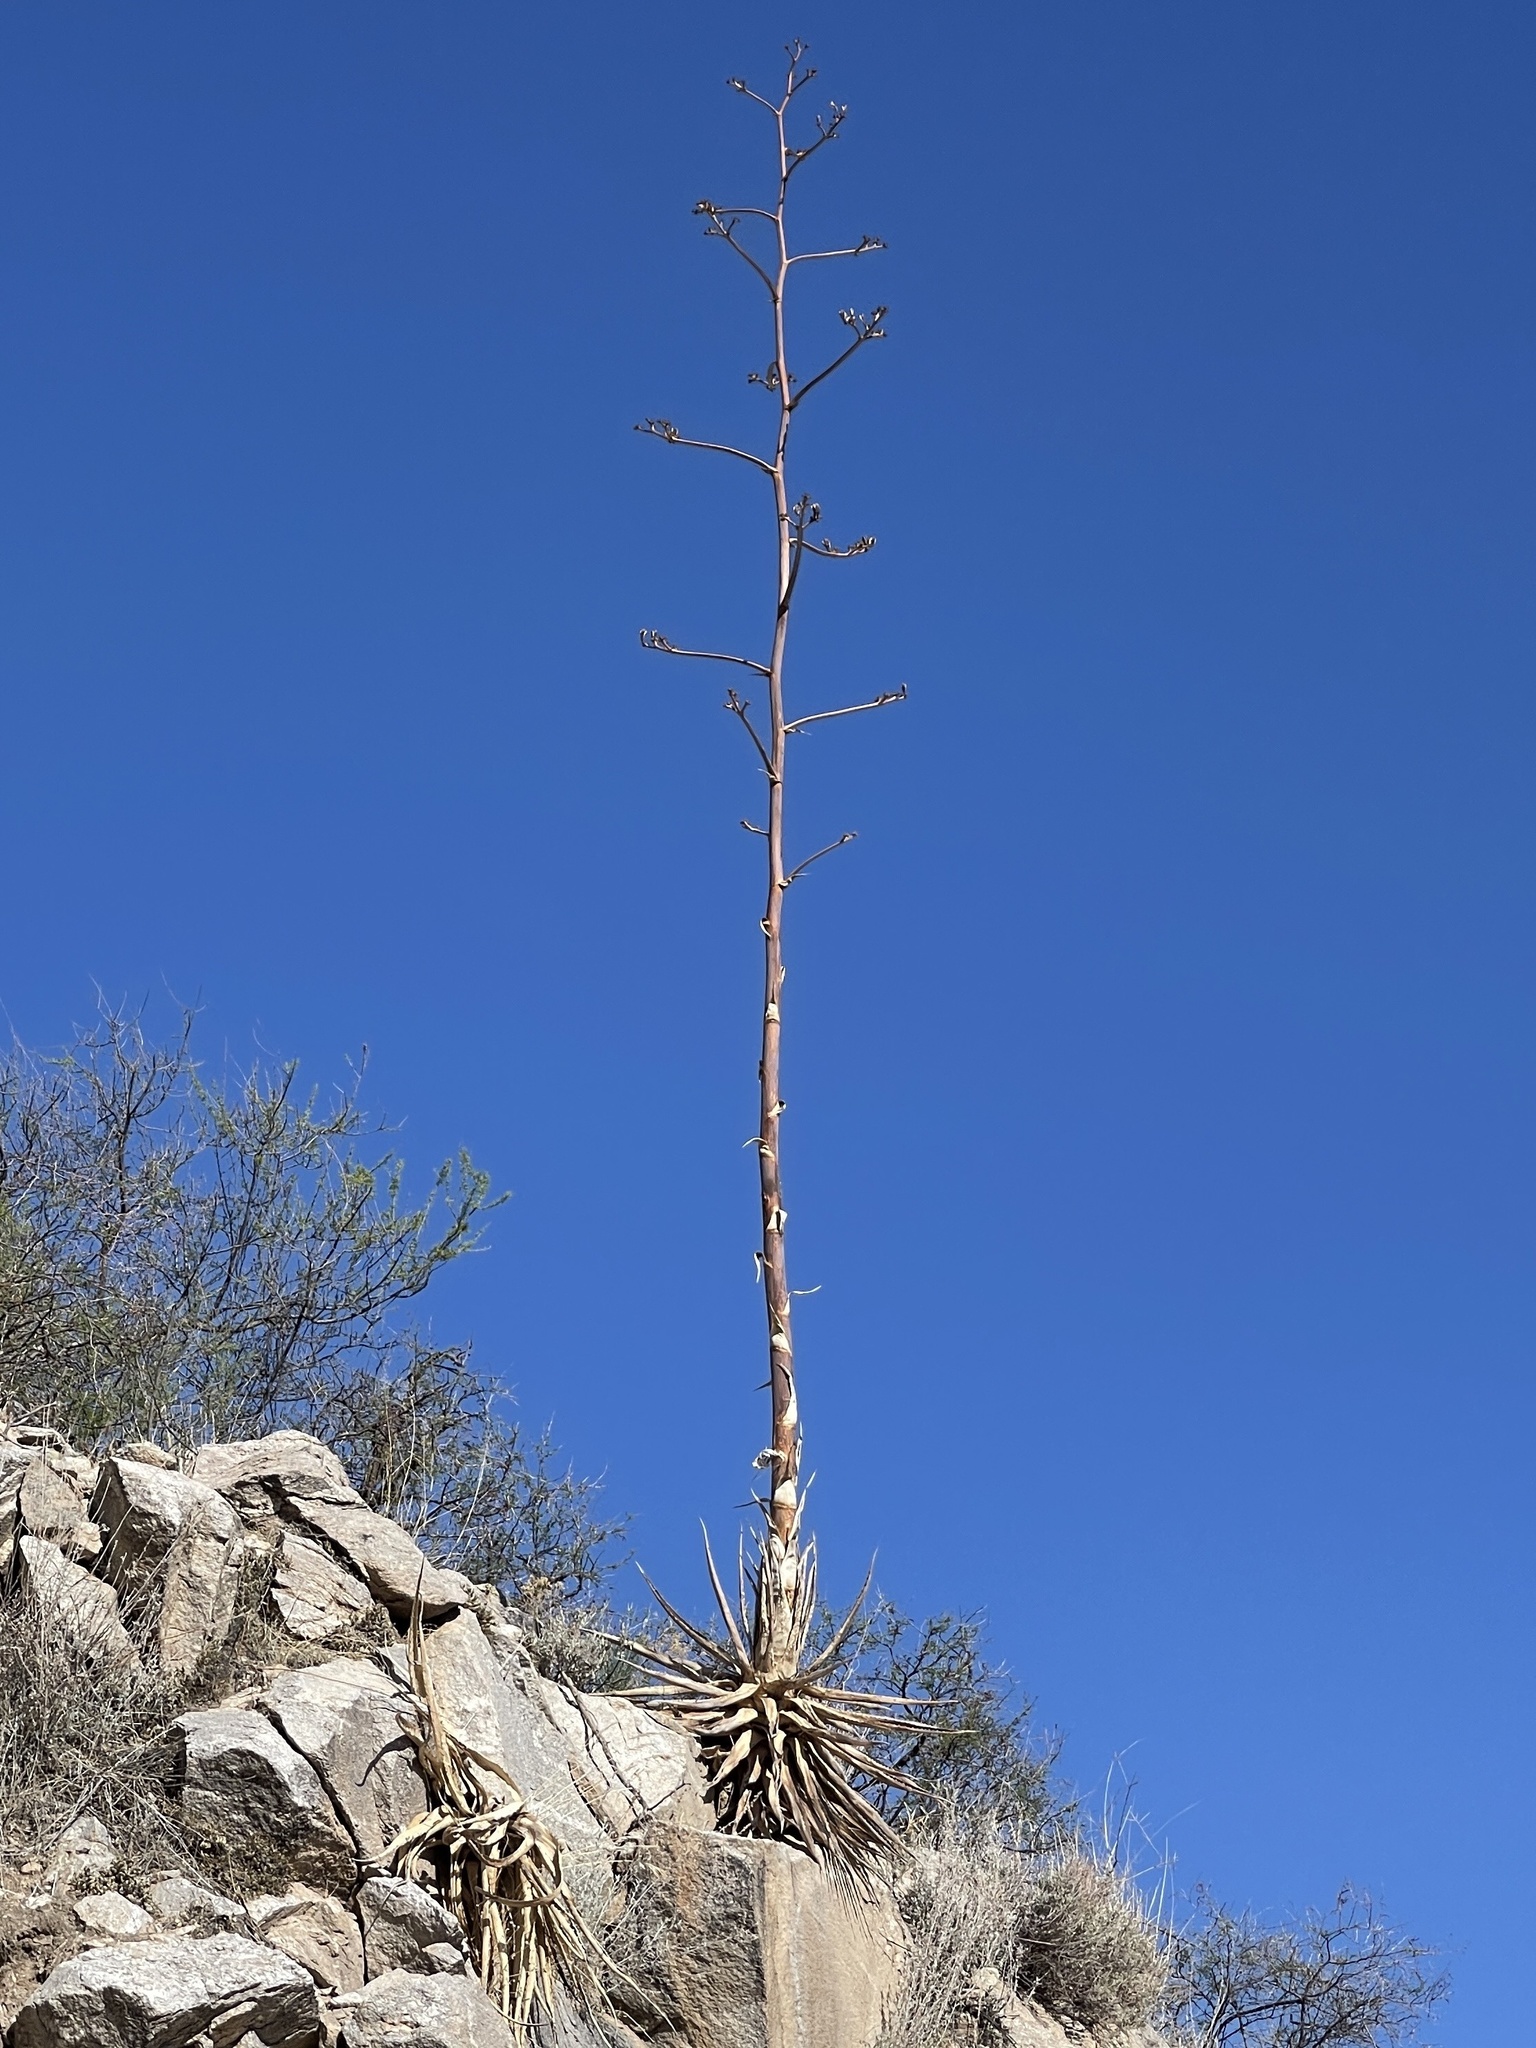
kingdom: Plantae
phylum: Tracheophyta
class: Liliopsida
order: Asparagales
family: Asparagaceae
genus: Agave
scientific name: Agave palmeri
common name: Palmer agave
